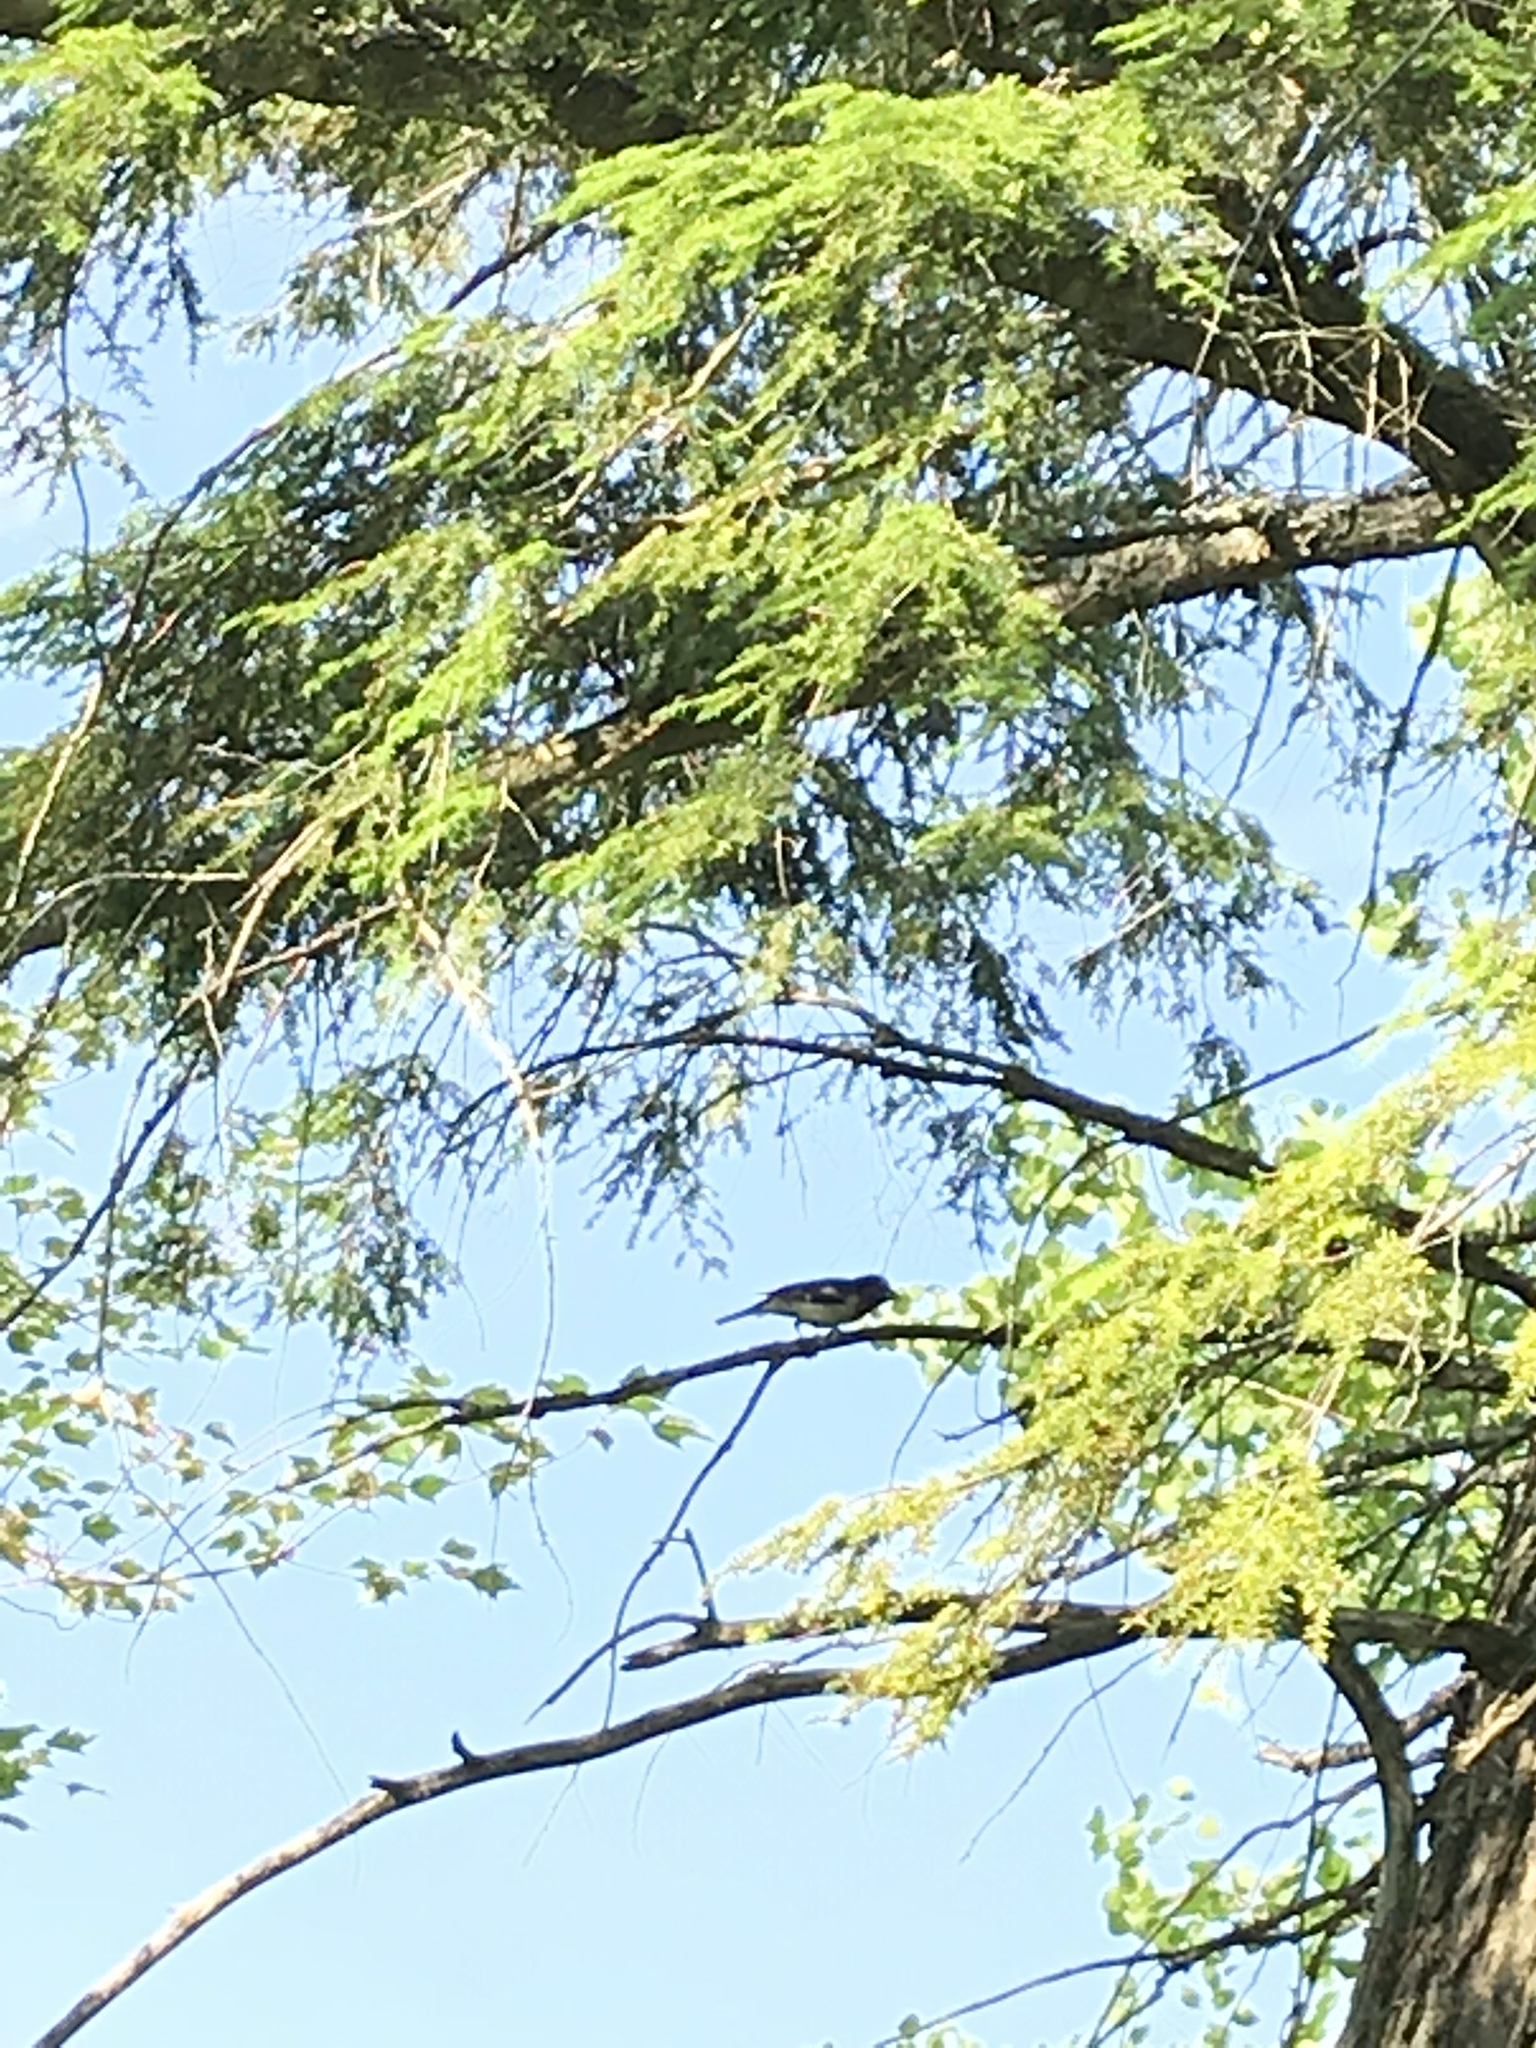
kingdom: Animalia
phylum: Chordata
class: Aves
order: Passeriformes
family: Cardinalidae
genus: Pheucticus
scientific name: Pheucticus ludovicianus
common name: Rose-breasted grosbeak
